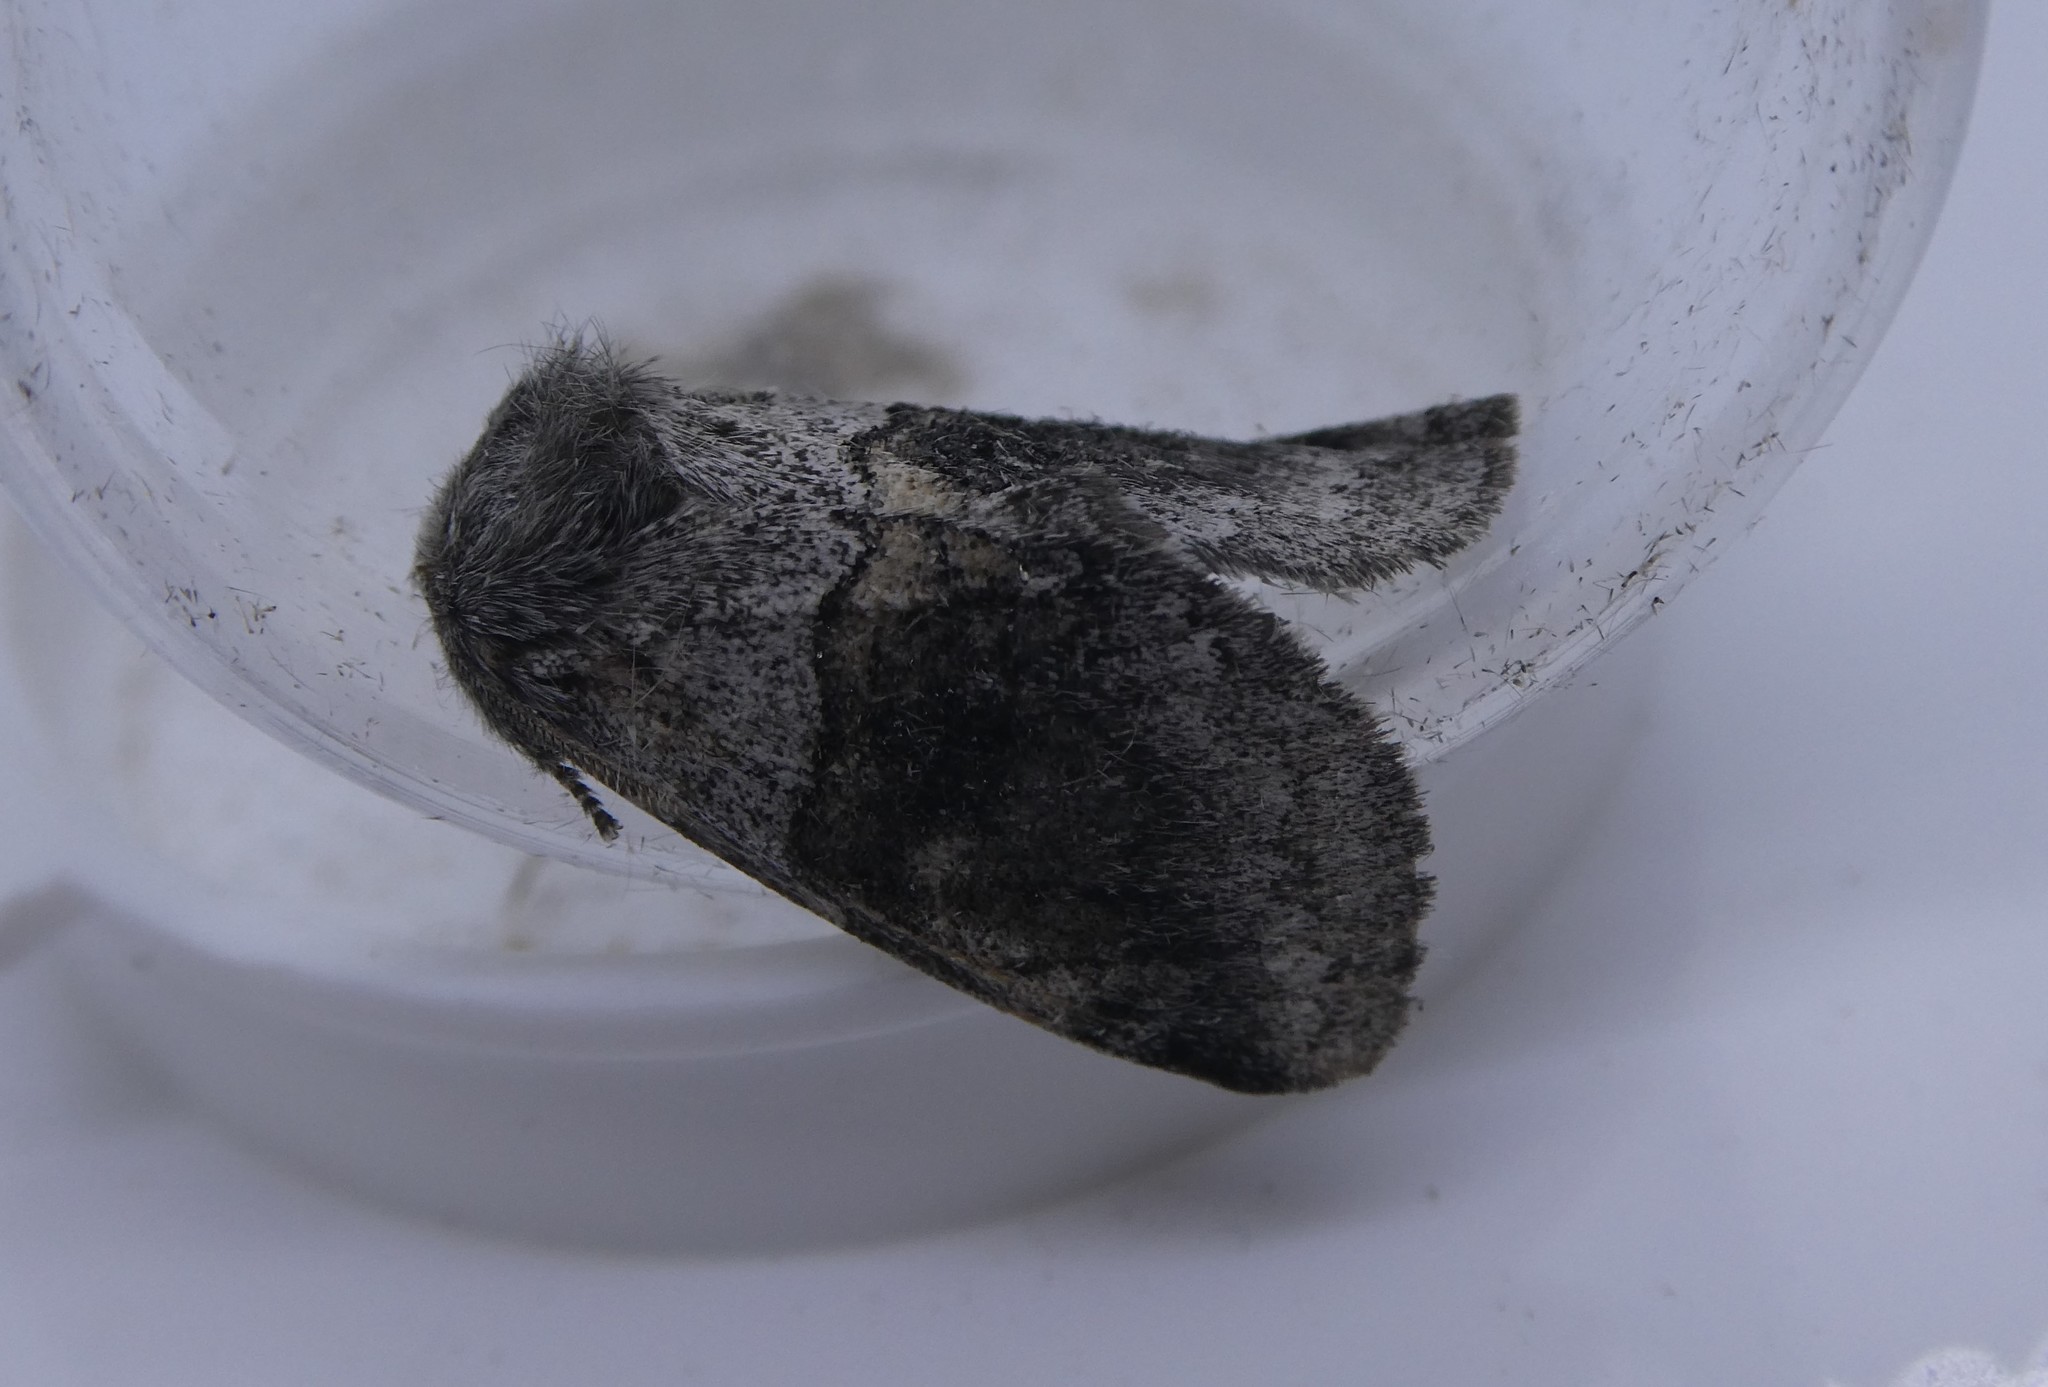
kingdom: Animalia
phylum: Arthropoda
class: Insecta
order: Lepidoptera
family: Notodontidae
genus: Gluphisia
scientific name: Gluphisia septentrionis
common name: Common gluphisia
